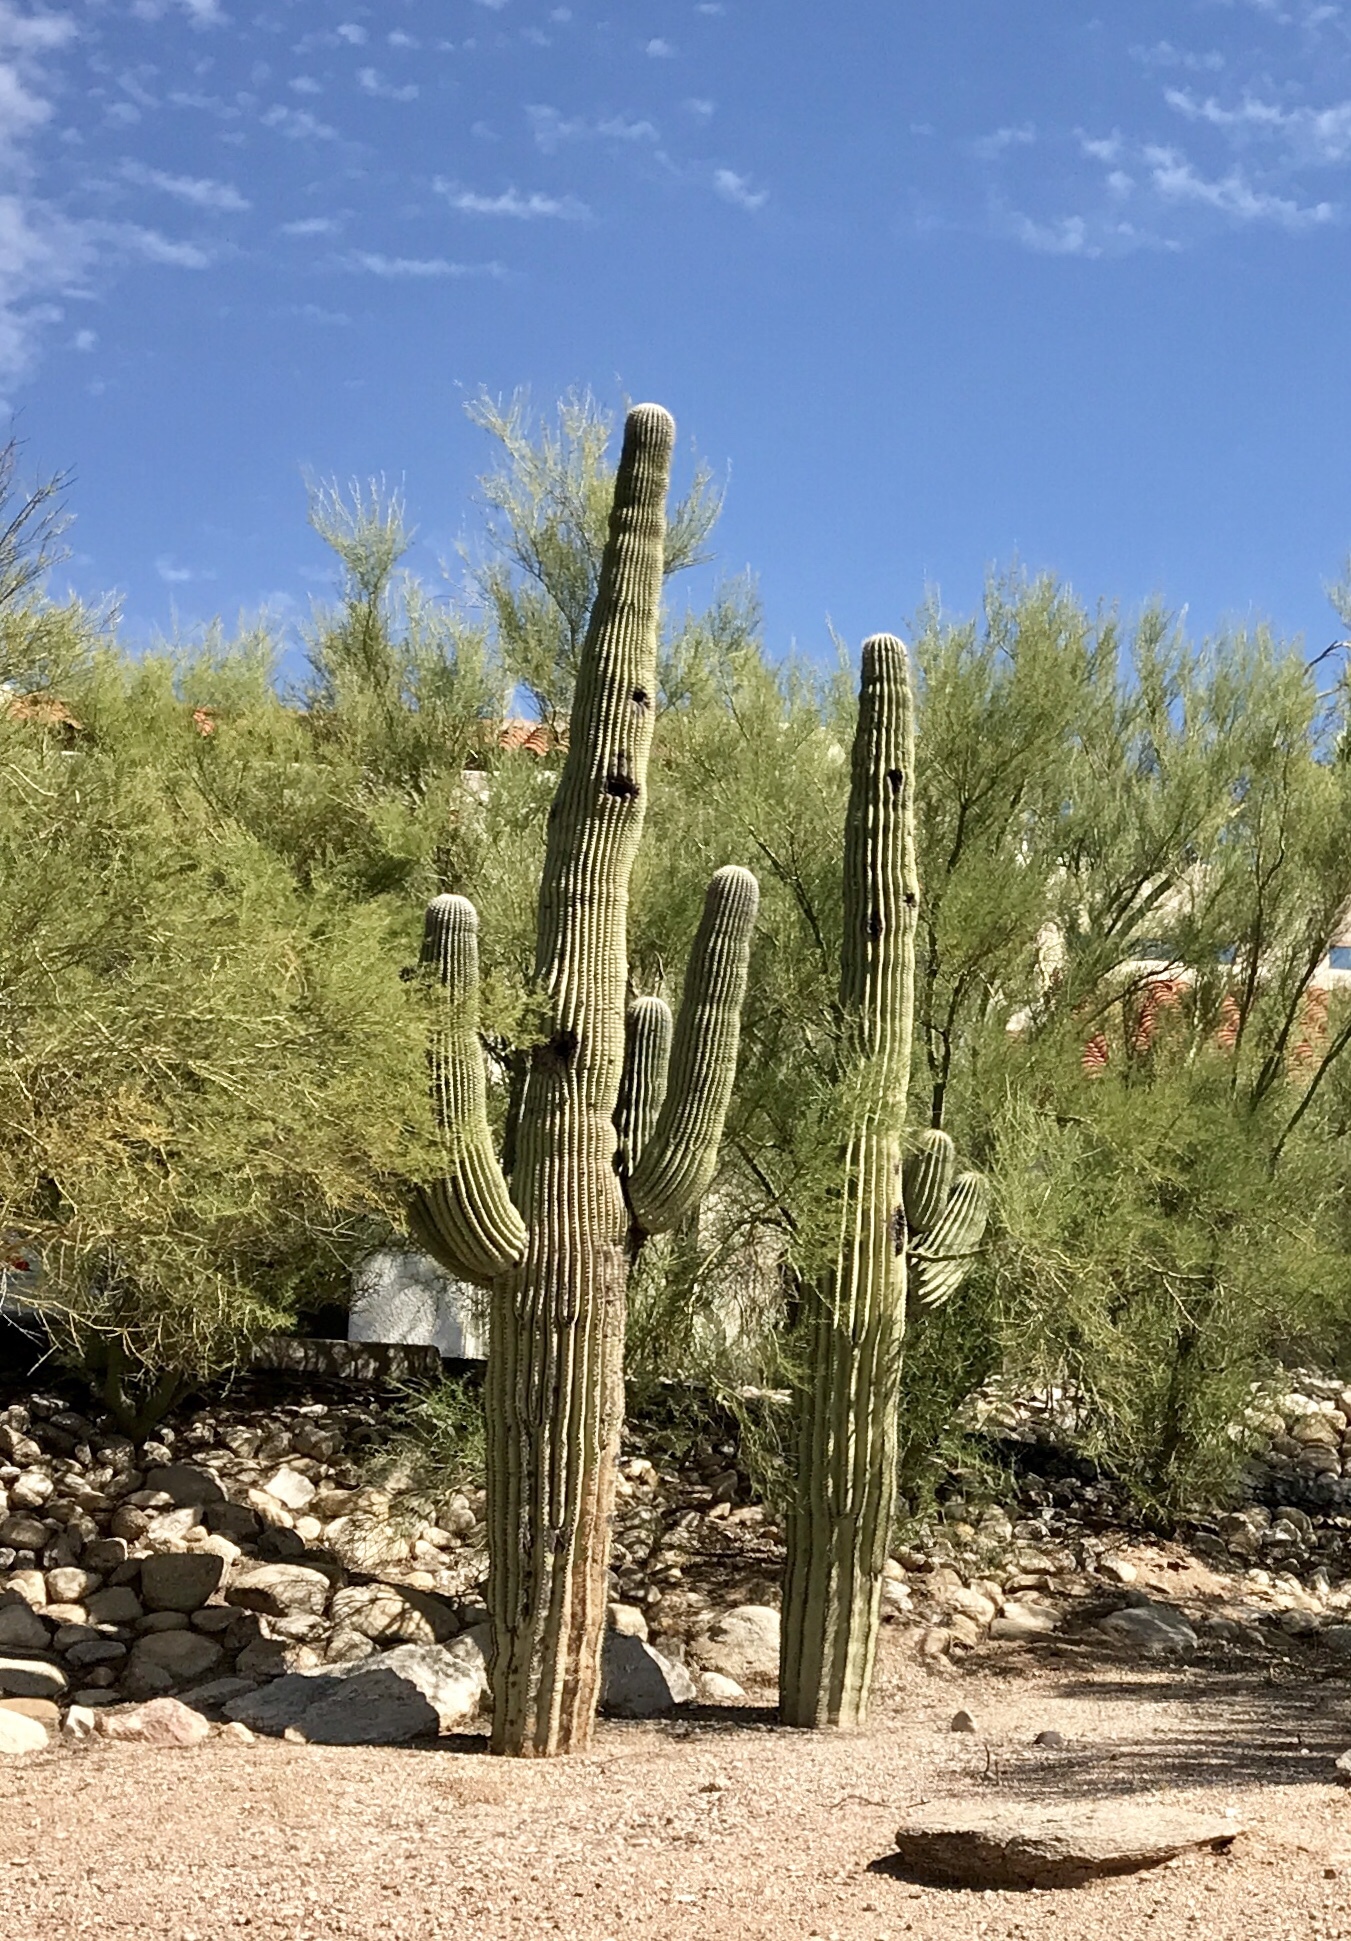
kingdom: Plantae
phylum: Tracheophyta
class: Magnoliopsida
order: Caryophyllales
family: Cactaceae
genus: Carnegiea
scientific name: Carnegiea gigantea
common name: Saguaro
